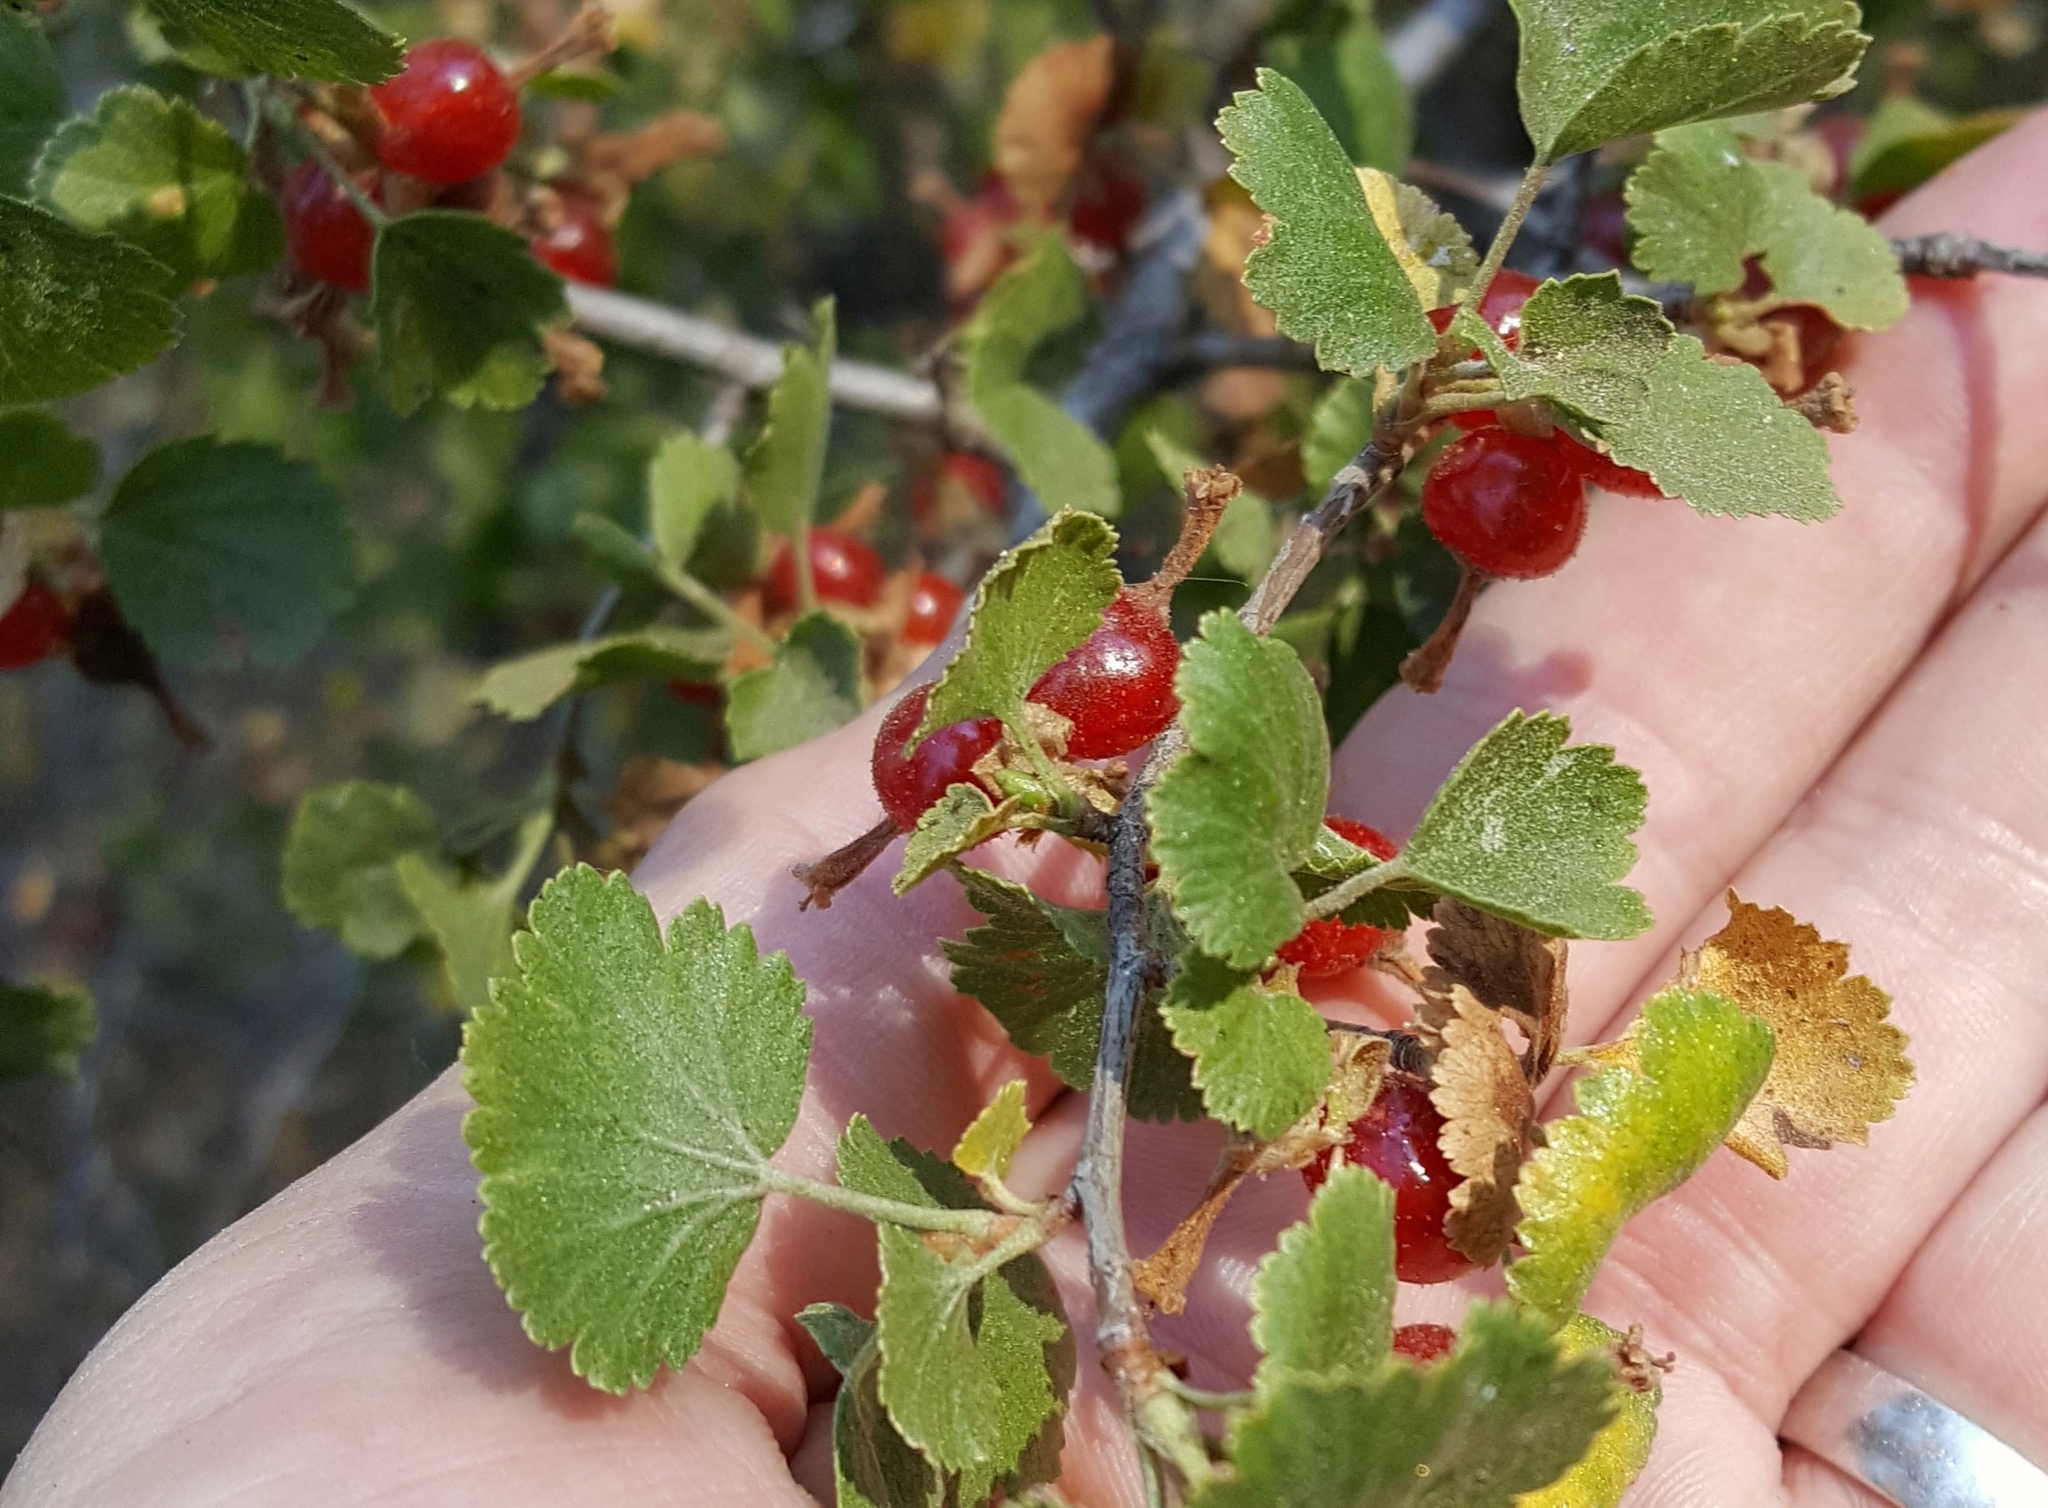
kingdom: Plantae
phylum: Tracheophyta
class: Magnoliopsida
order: Saxifragales
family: Grossulariaceae
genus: Ribes
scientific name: Ribes cereum
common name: Wax currant
